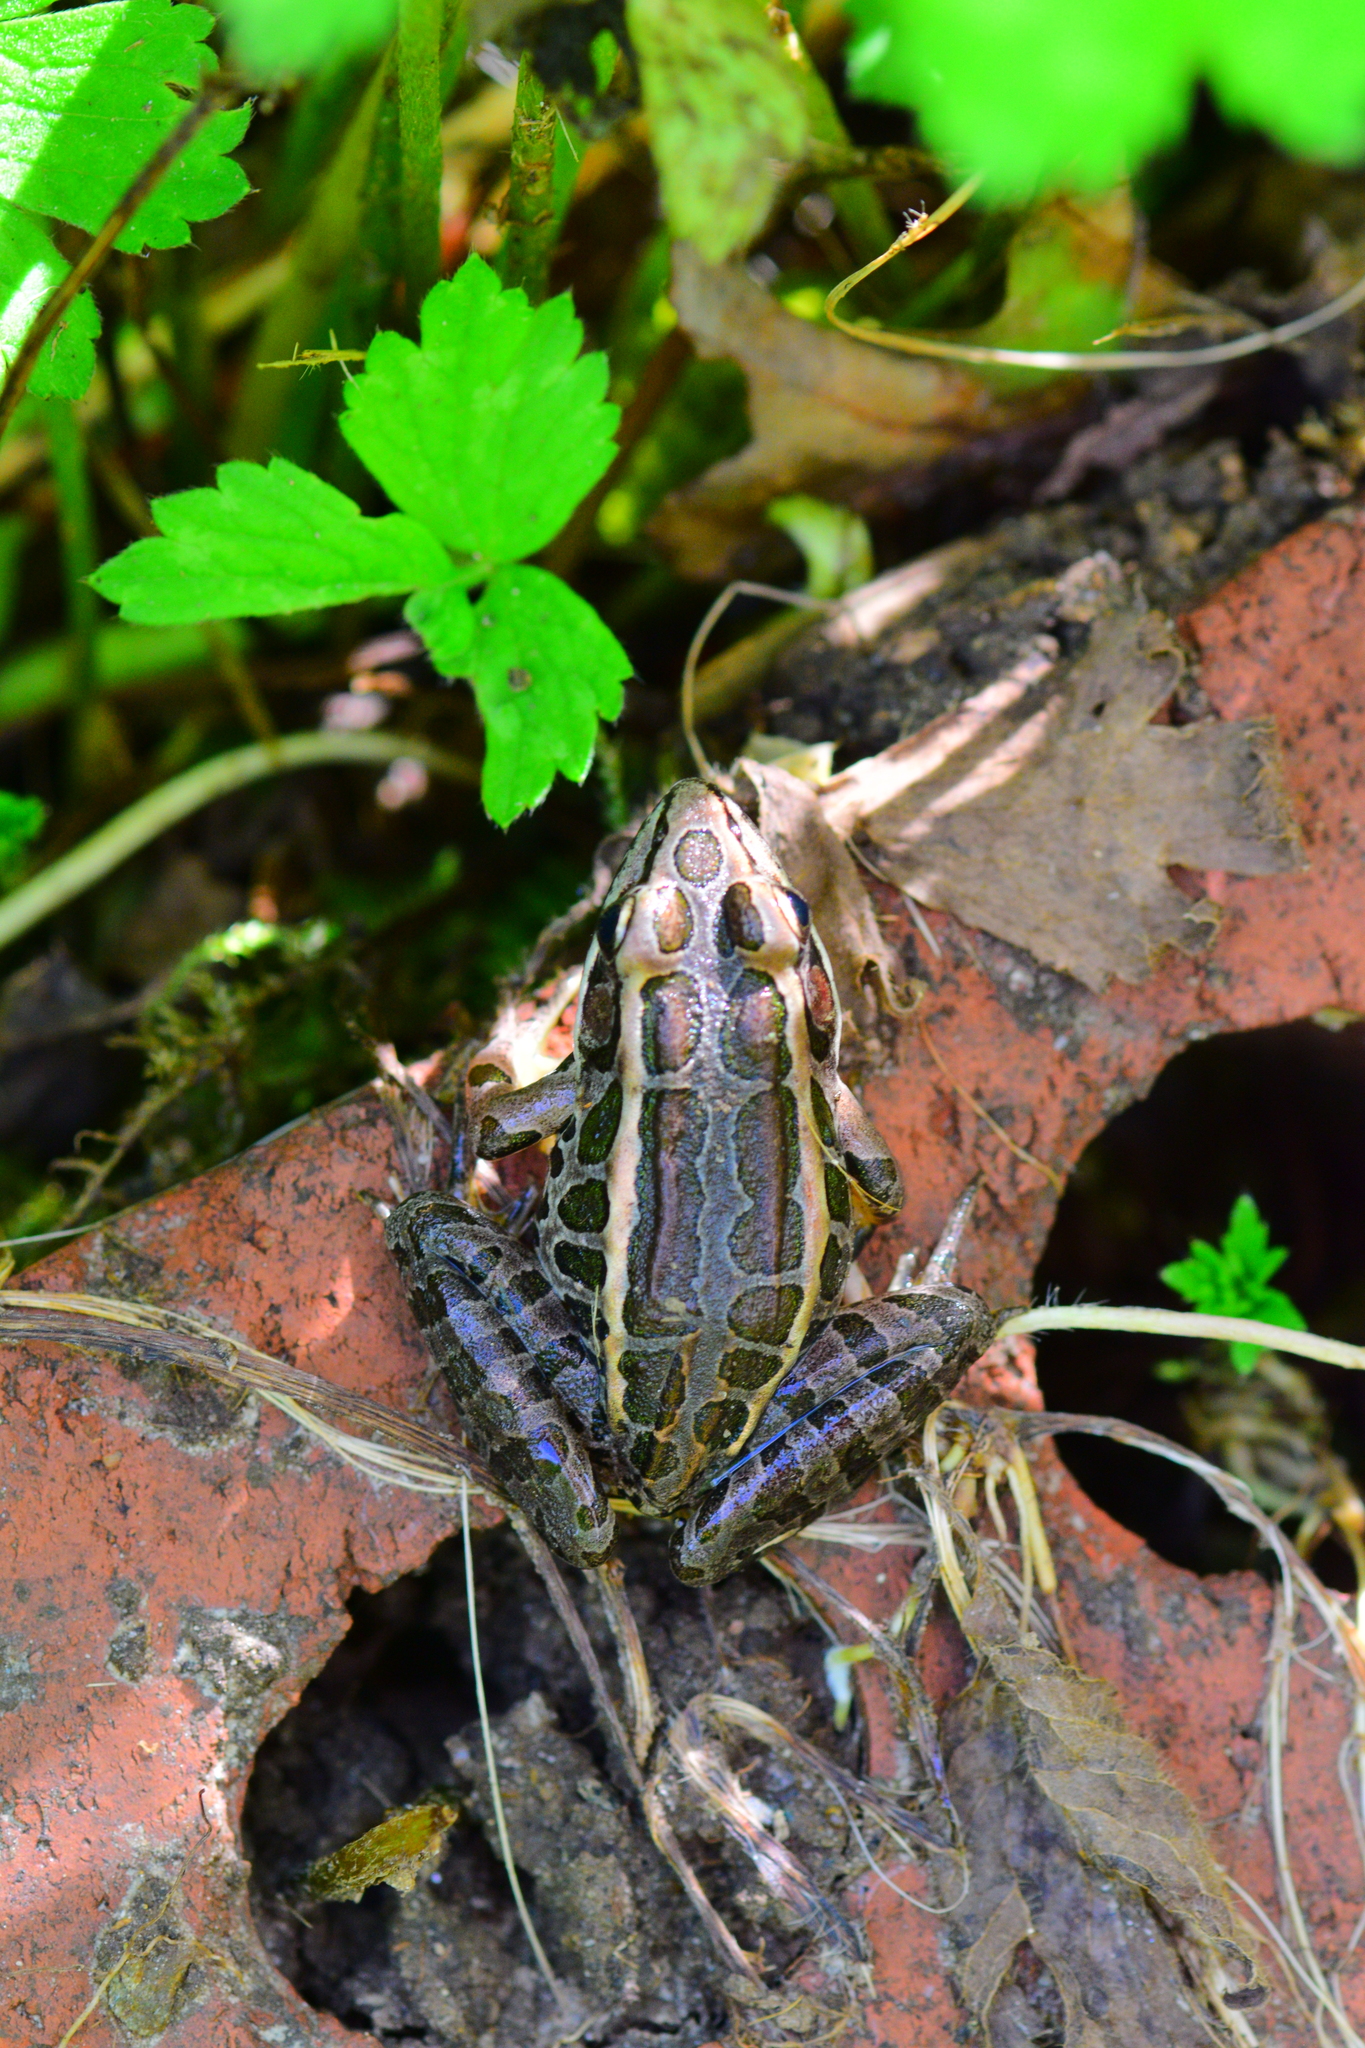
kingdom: Animalia
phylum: Chordata
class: Amphibia
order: Anura
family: Ranidae
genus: Lithobates
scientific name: Lithobates palustris
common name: Pickerel frog
